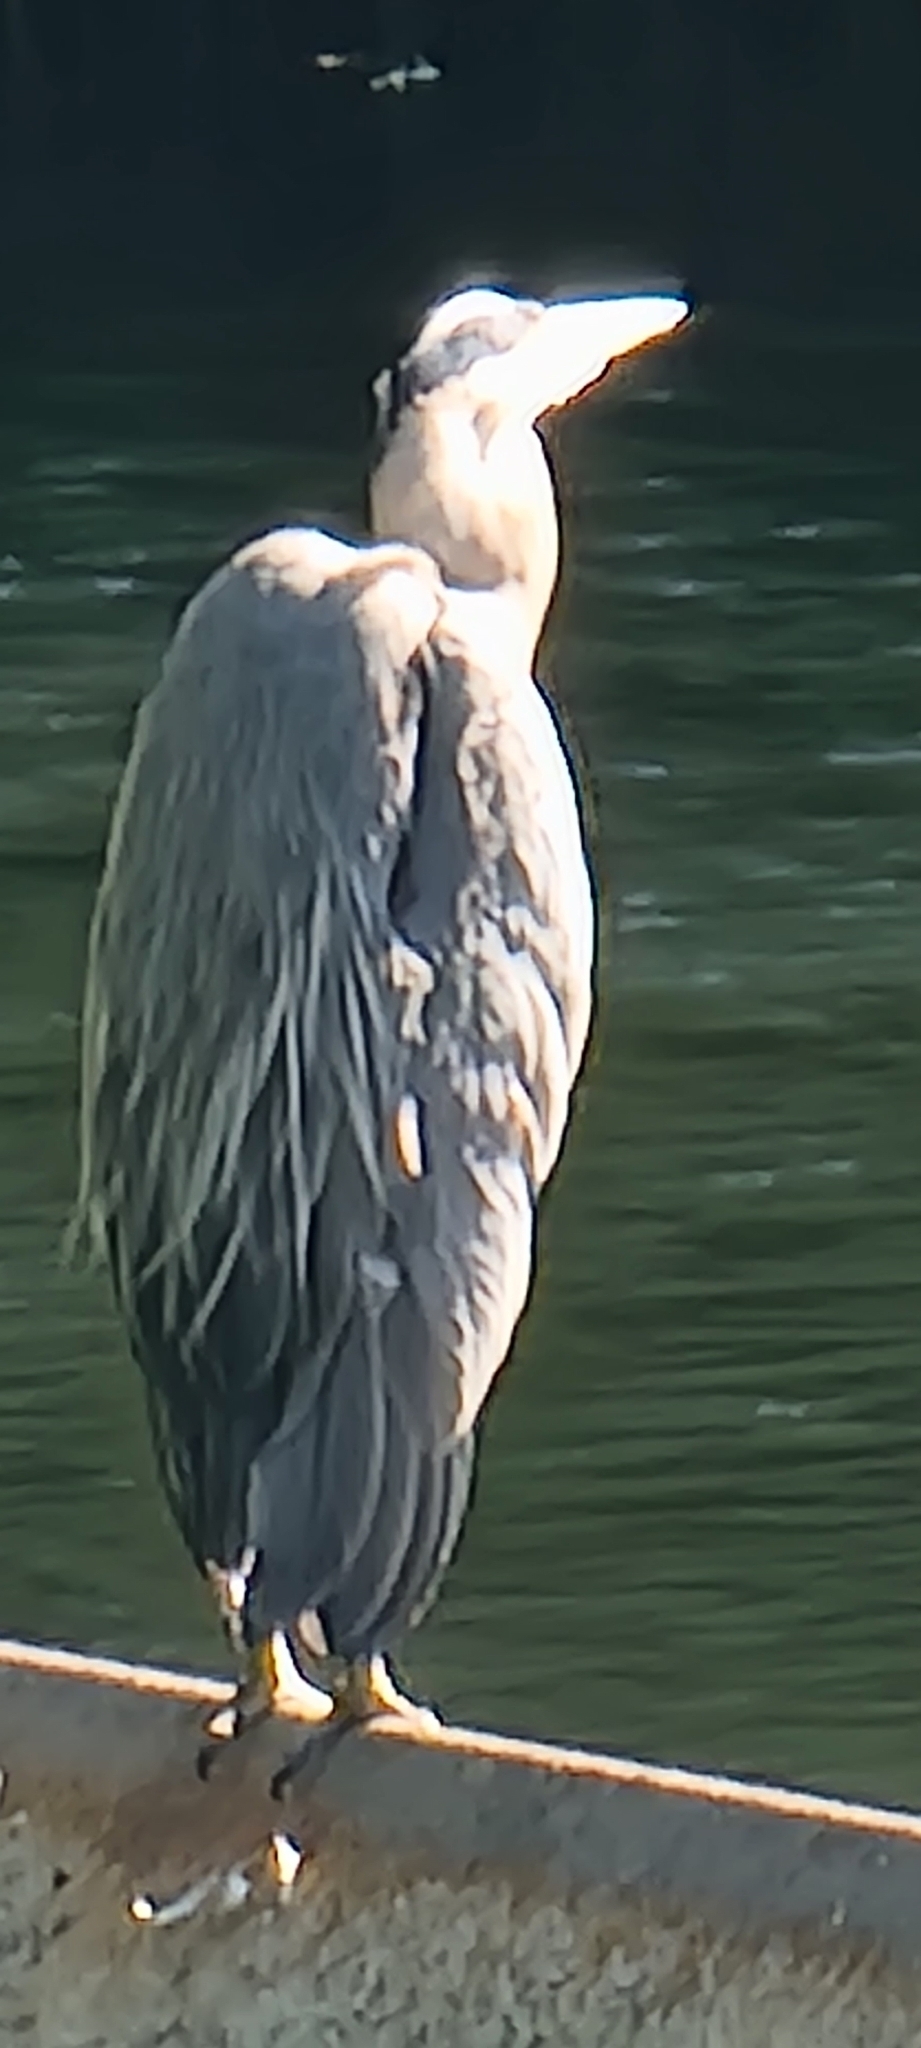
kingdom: Animalia
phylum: Chordata
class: Aves
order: Pelecaniformes
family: Ardeidae
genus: Ardea
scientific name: Ardea herodias
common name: Great blue heron
